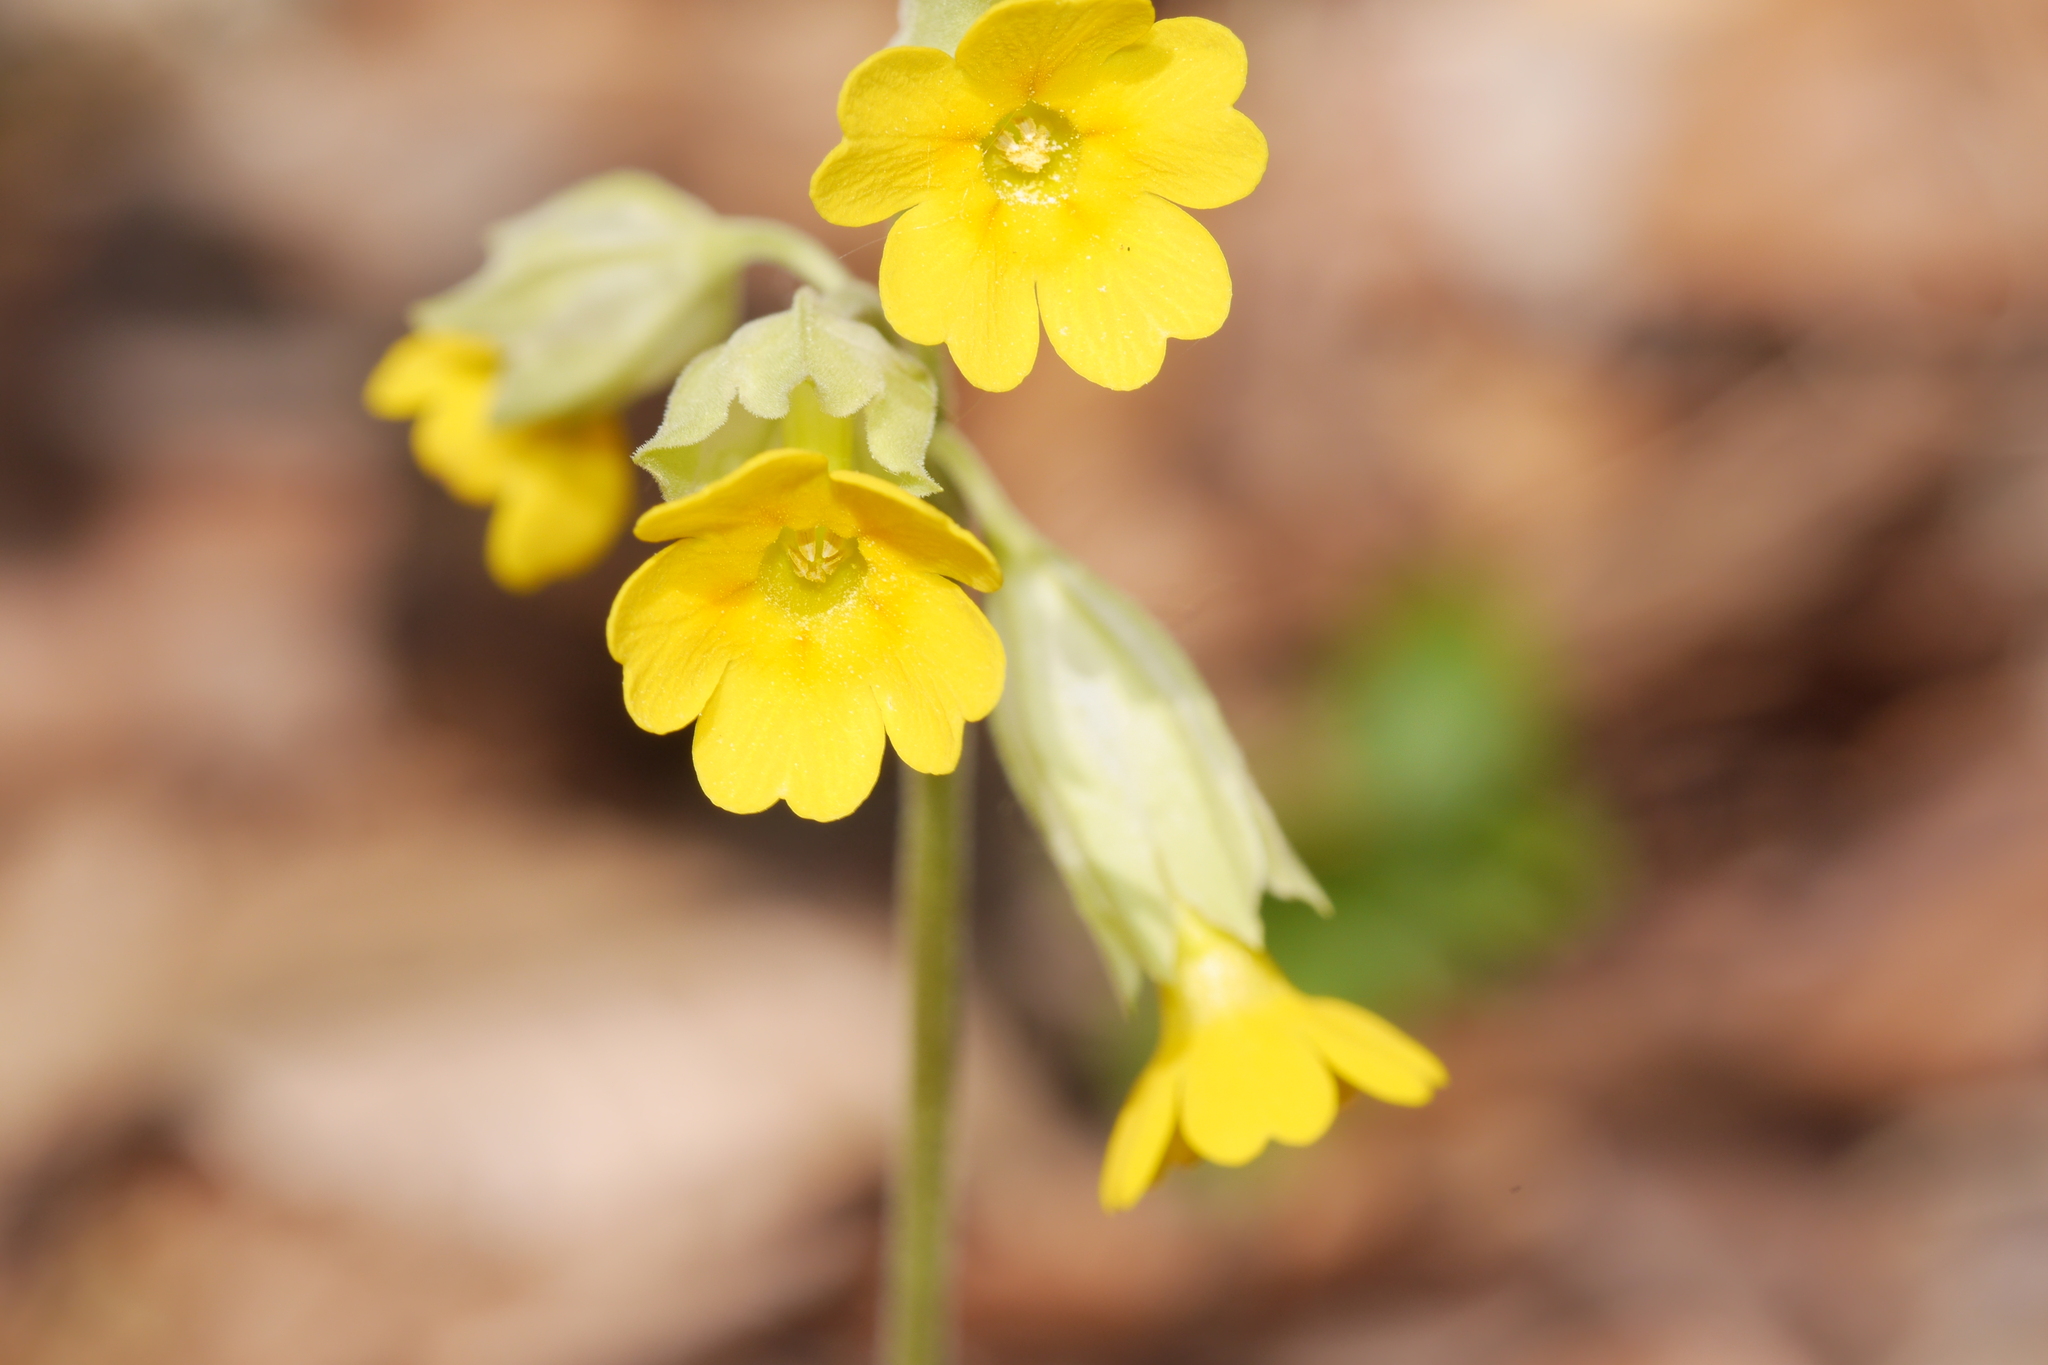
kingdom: Plantae
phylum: Tracheophyta
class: Magnoliopsida
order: Ericales
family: Primulaceae
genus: Primula
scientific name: Primula veris
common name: Cowslip
